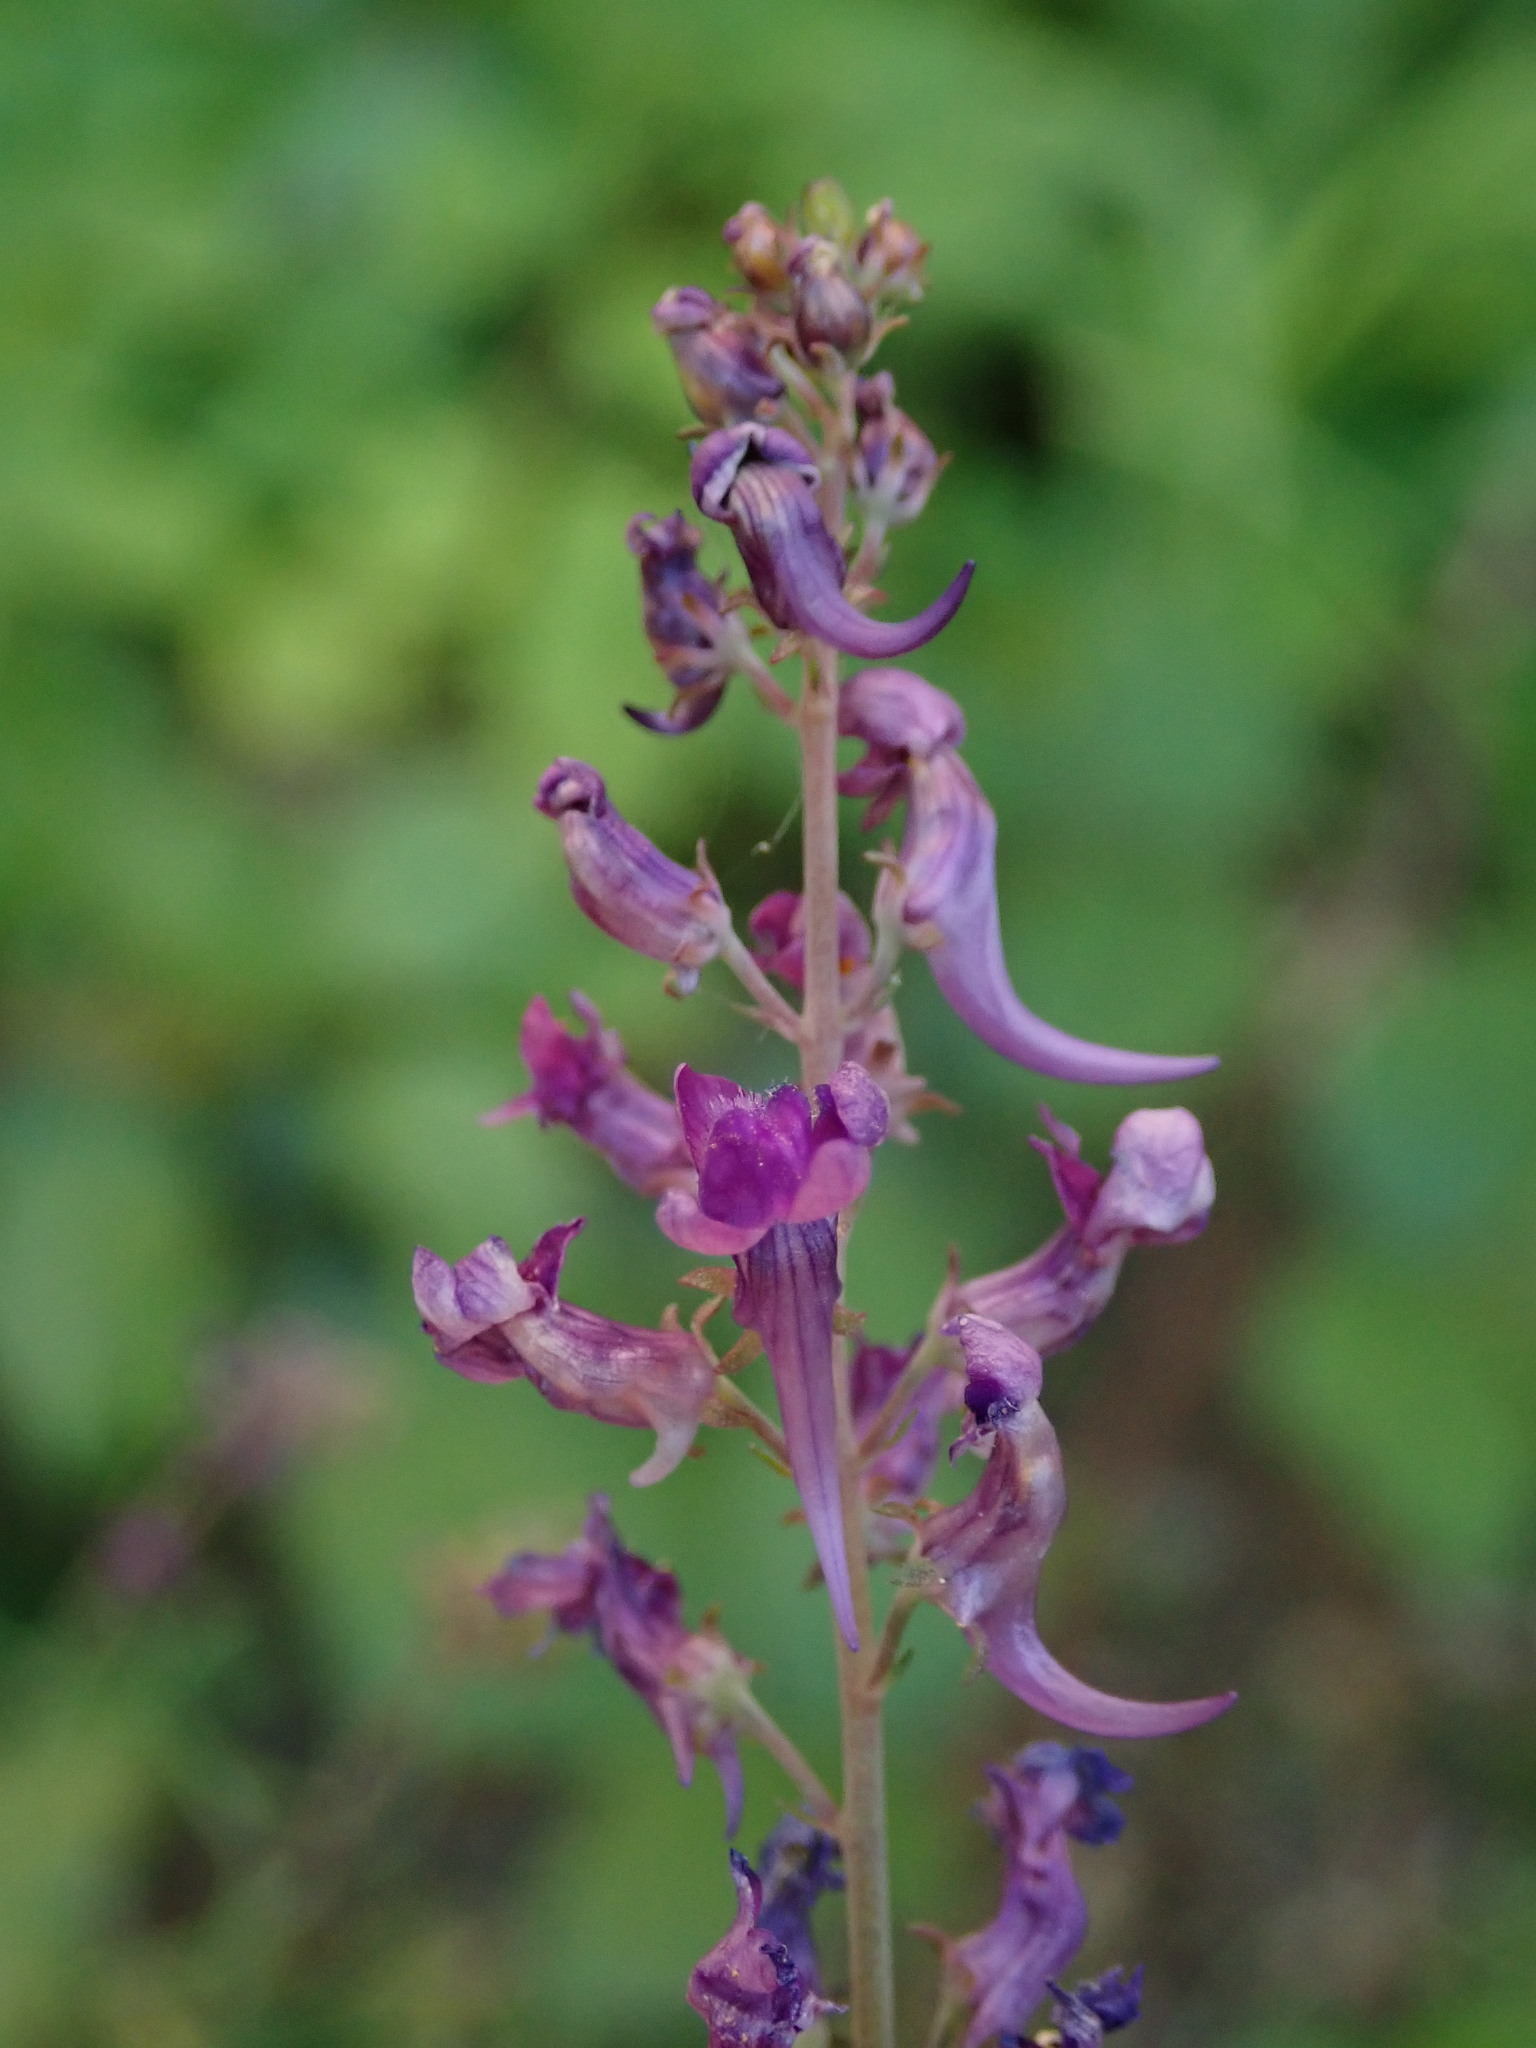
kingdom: Plantae
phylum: Tracheophyta
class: Magnoliopsida
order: Lamiales
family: Plantaginaceae
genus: Linaria
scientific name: Linaria purpurea
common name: Purple toadflax
